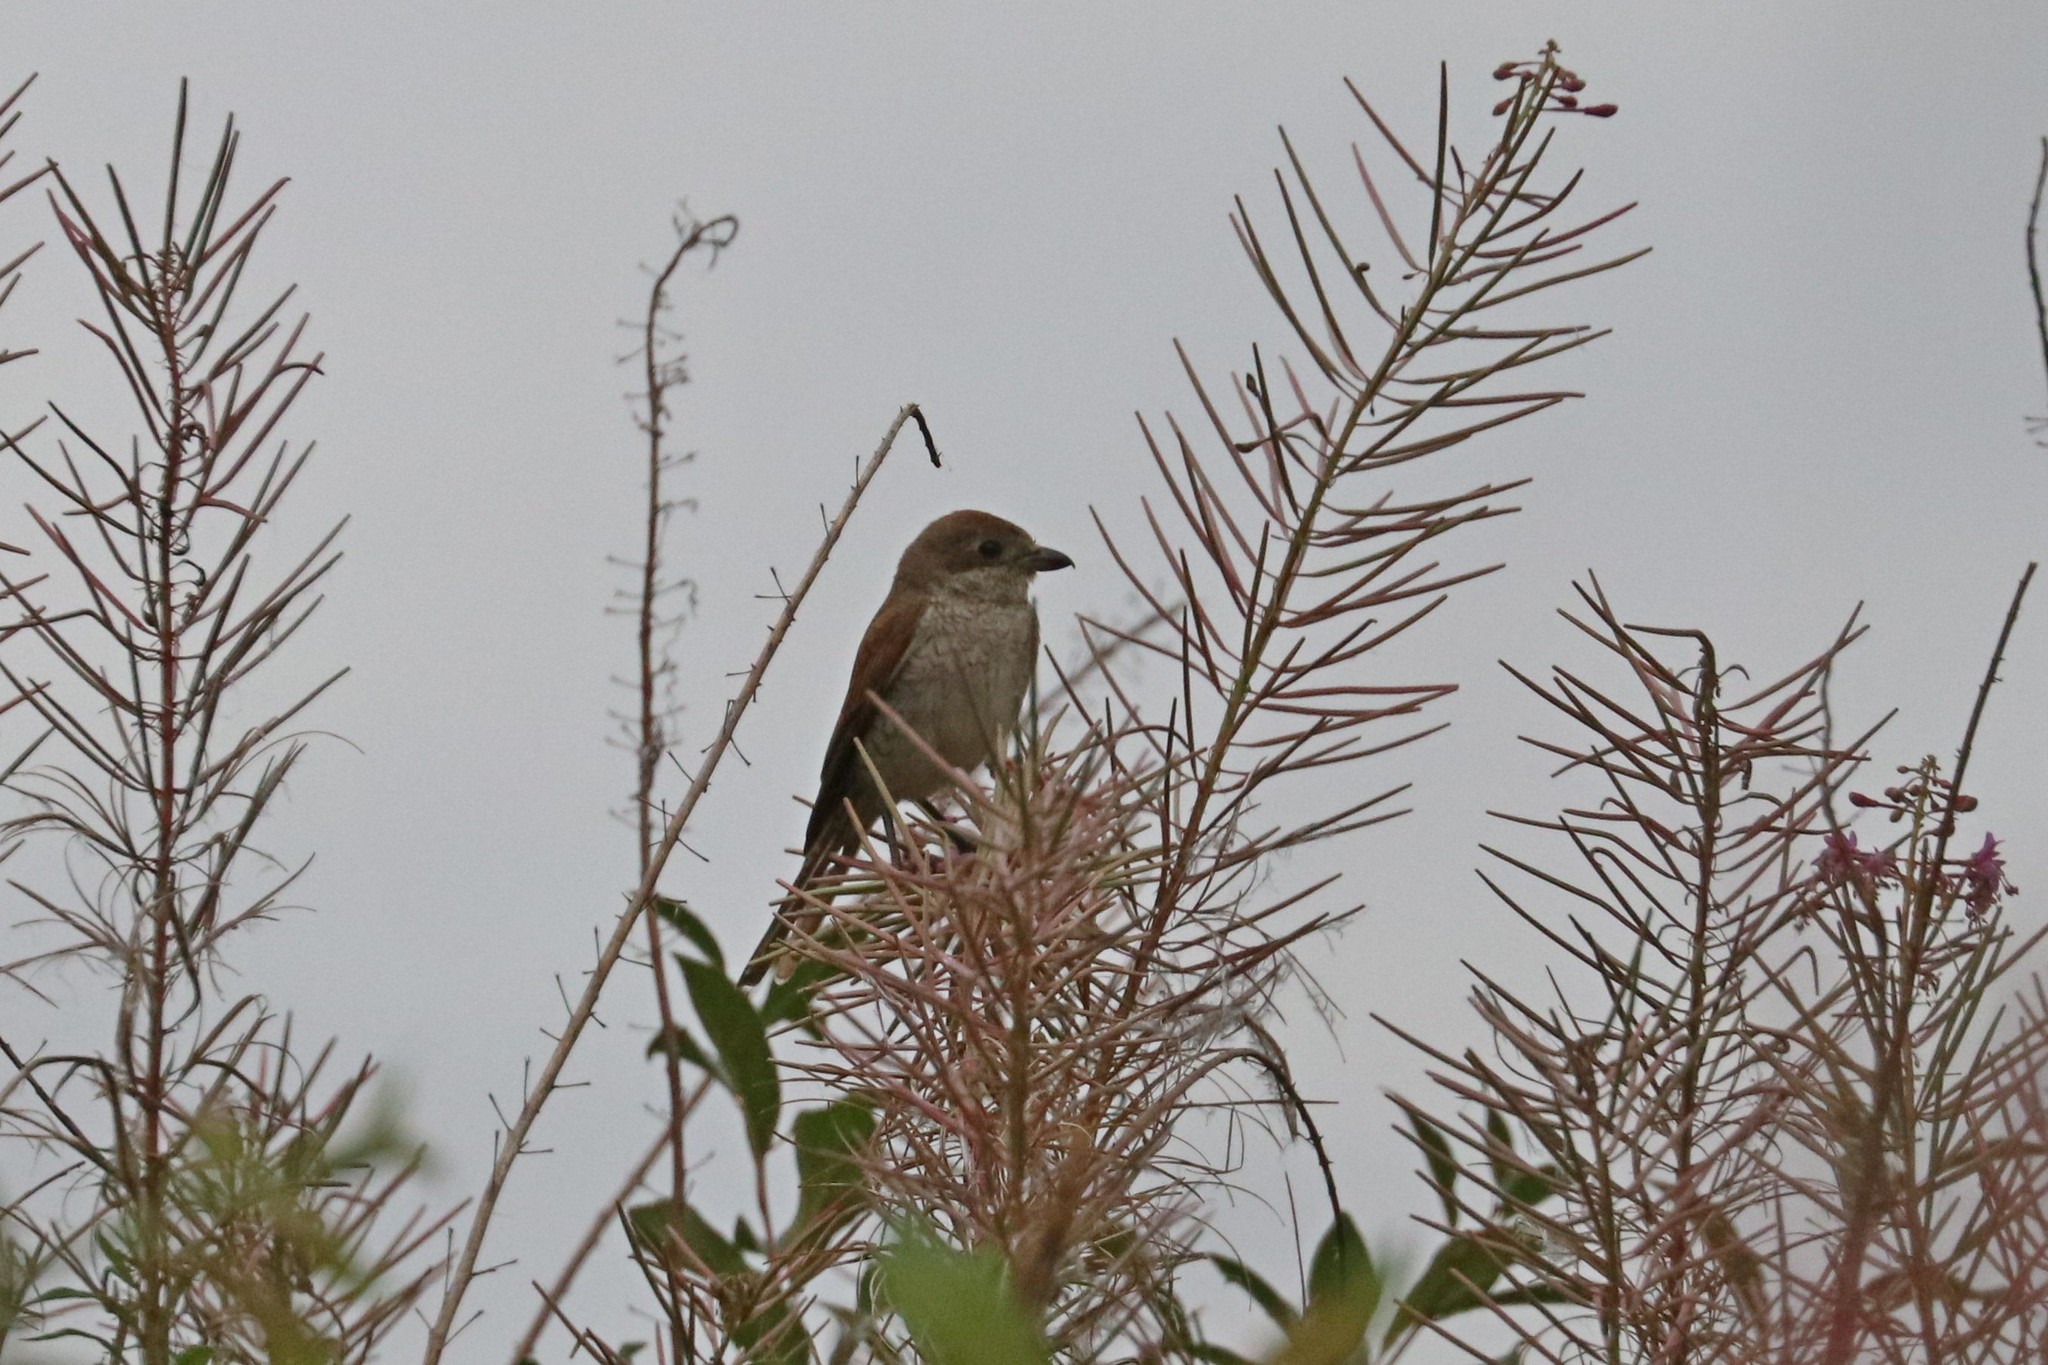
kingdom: Animalia
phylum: Chordata
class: Aves
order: Passeriformes
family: Laniidae
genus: Lanius
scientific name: Lanius collurio
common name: Red-backed shrike
